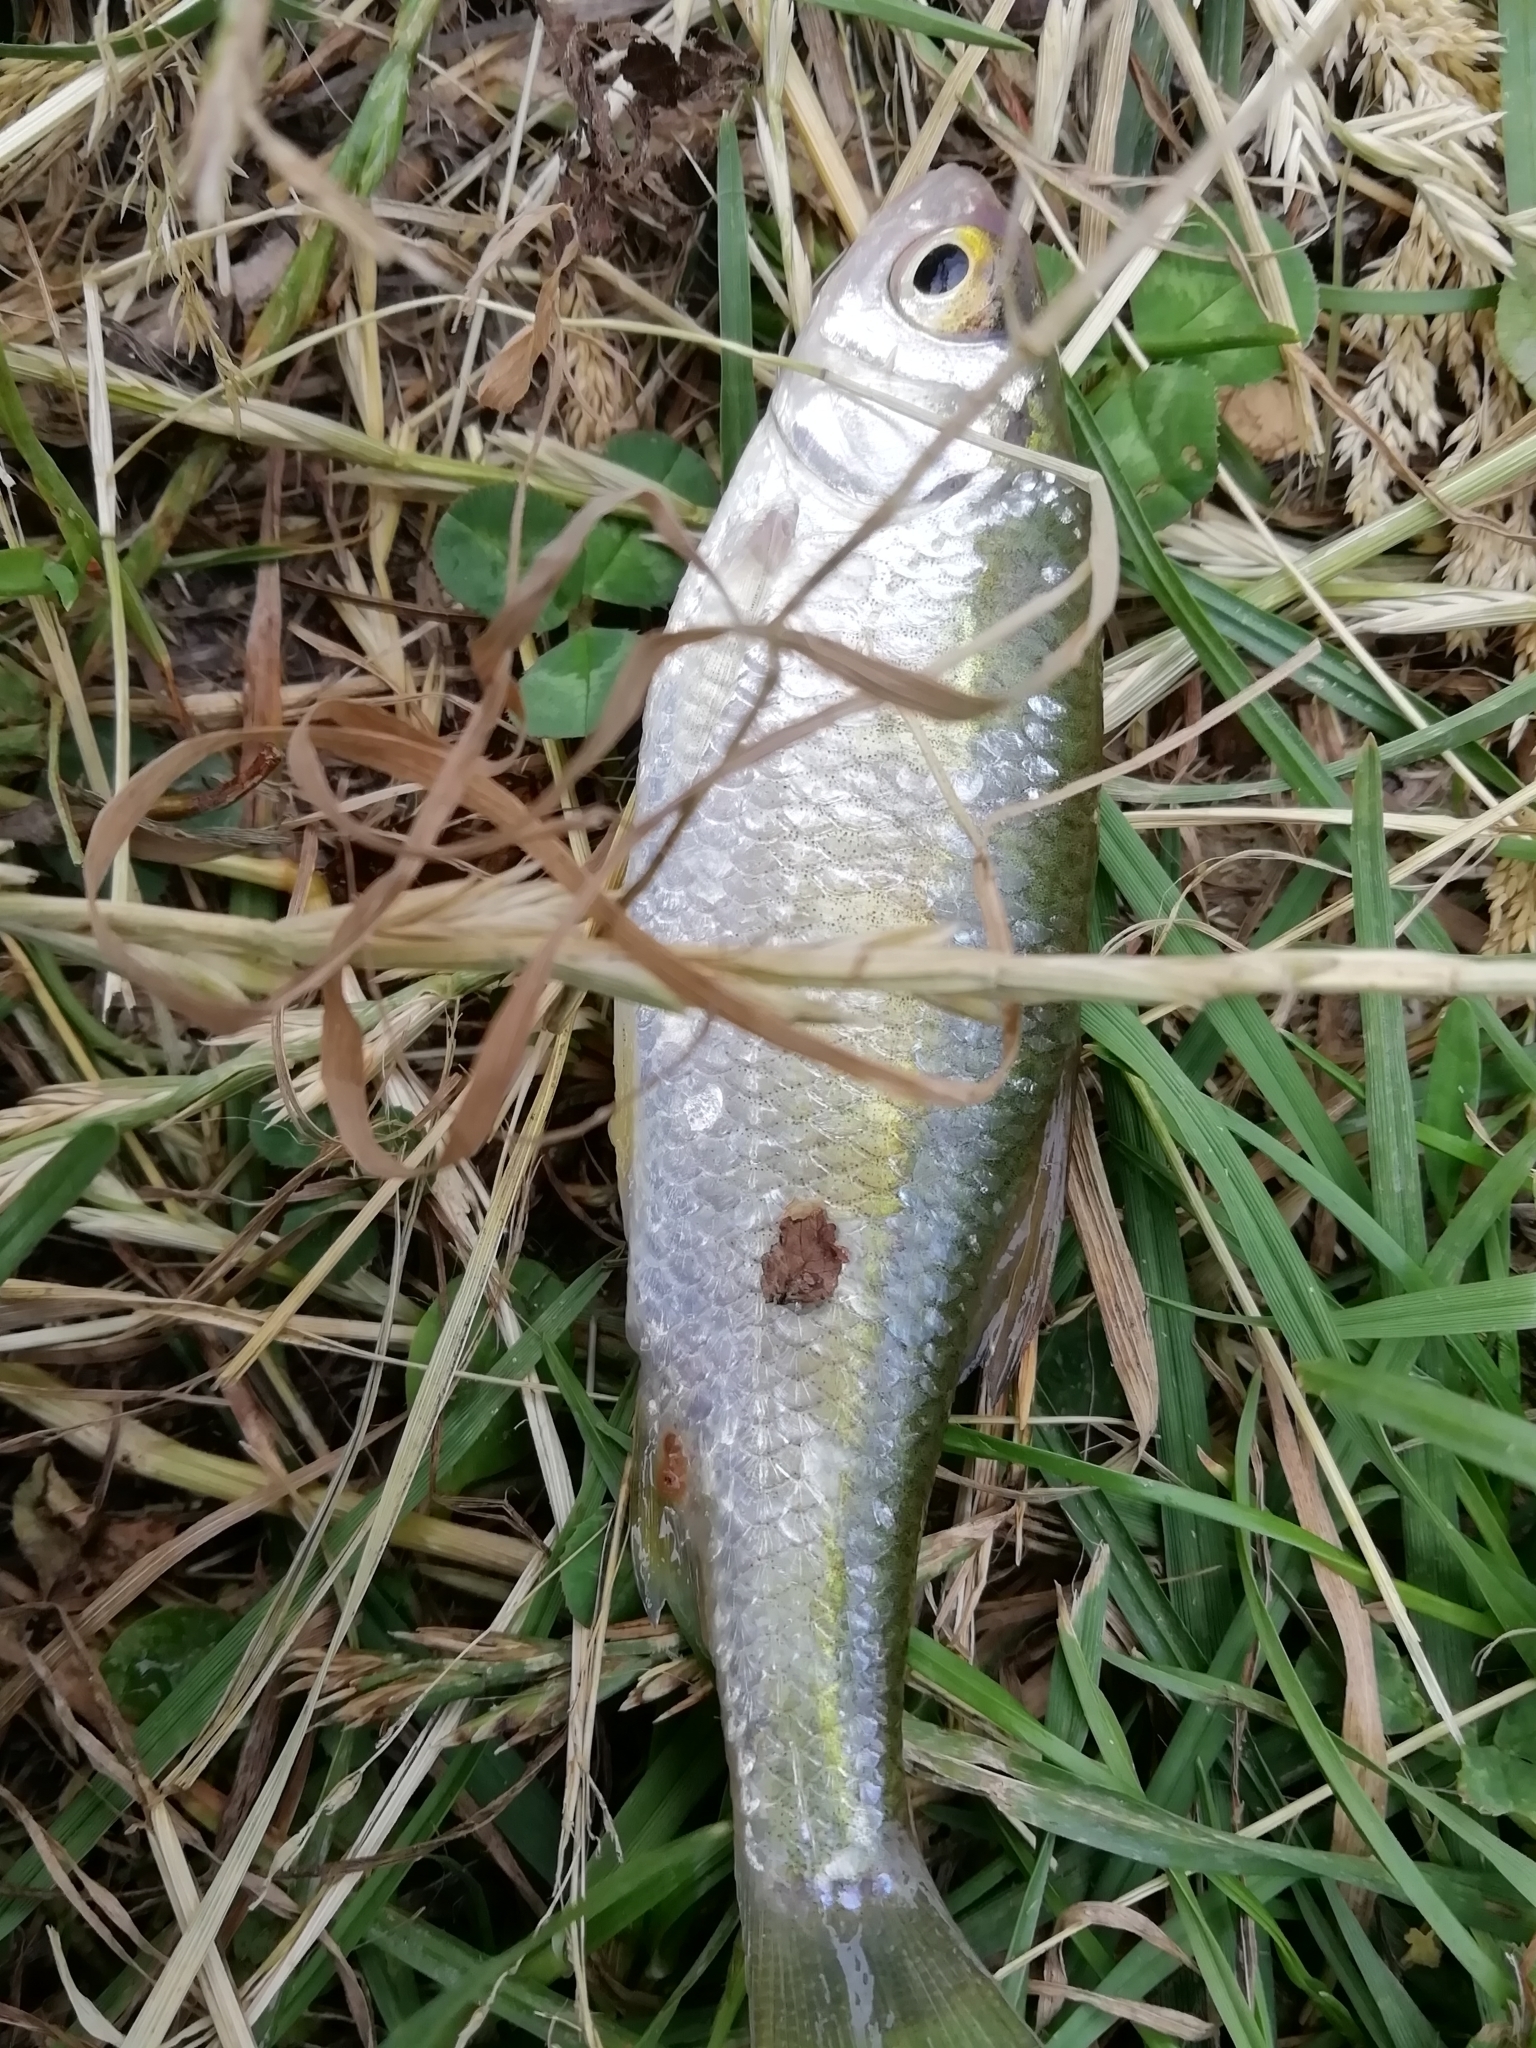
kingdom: Animalia
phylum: Chordata
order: Cypriniformes
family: Cyprinidae
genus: Rutilus
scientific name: Rutilus rutilus
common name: Roach
